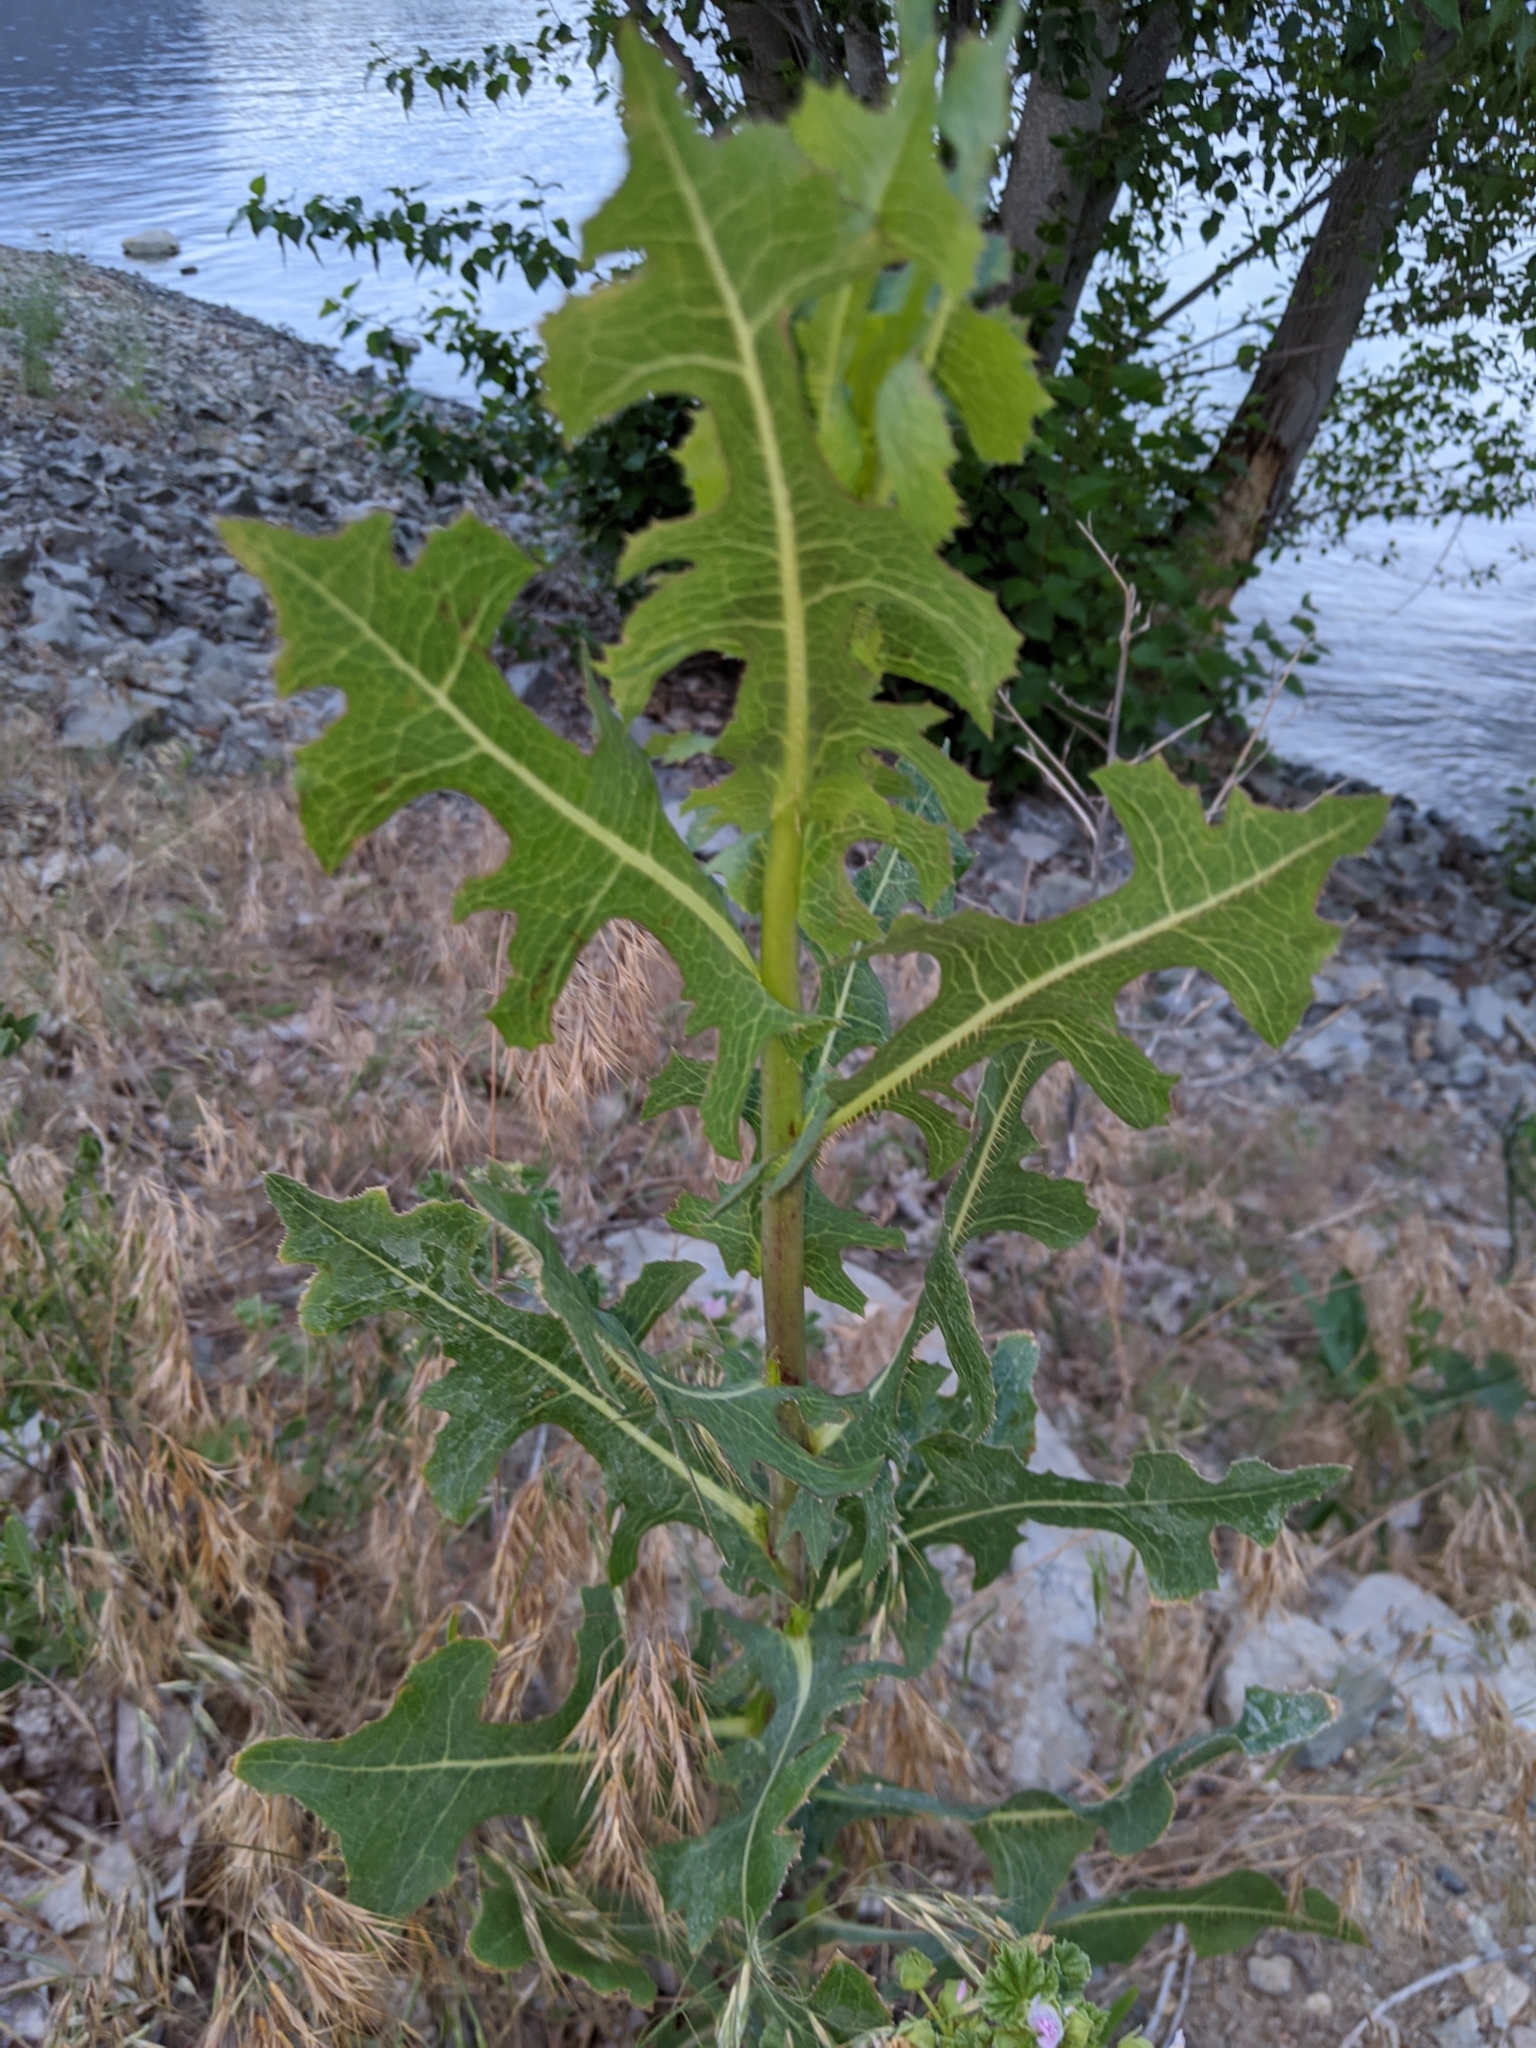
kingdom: Plantae
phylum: Tracheophyta
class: Magnoliopsida
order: Asterales
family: Asteraceae
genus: Lactuca
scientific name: Lactuca serriola
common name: Prickly lettuce
